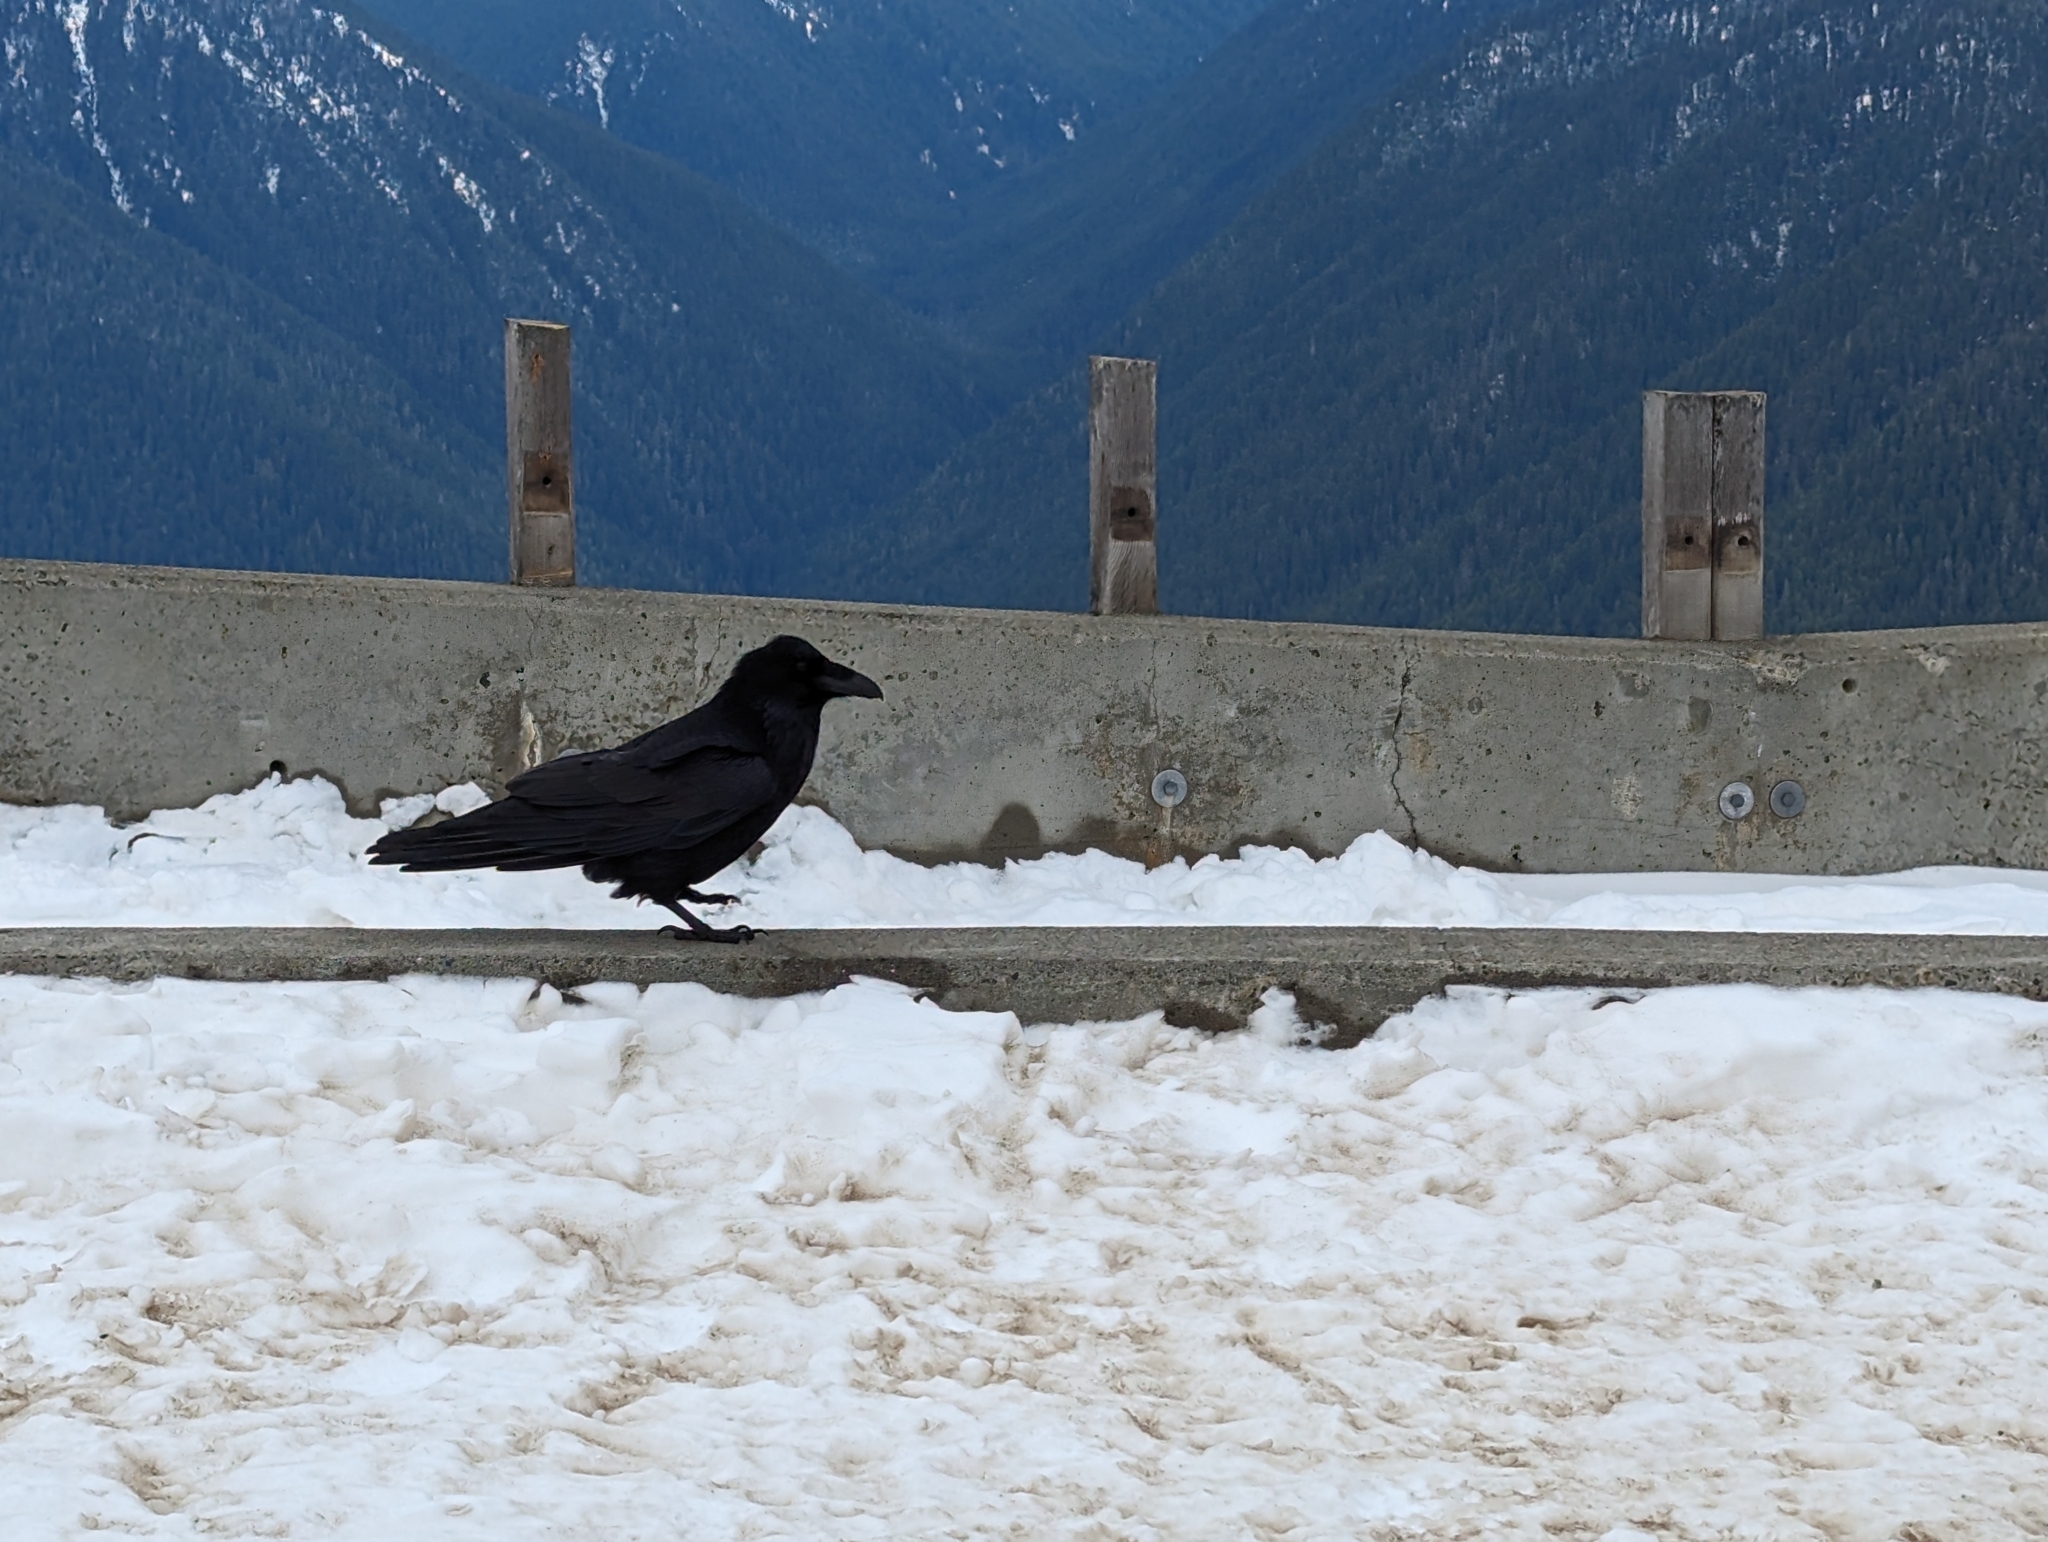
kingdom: Animalia
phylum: Chordata
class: Aves
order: Passeriformes
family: Corvidae
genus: Corvus
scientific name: Corvus corax
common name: Common raven
